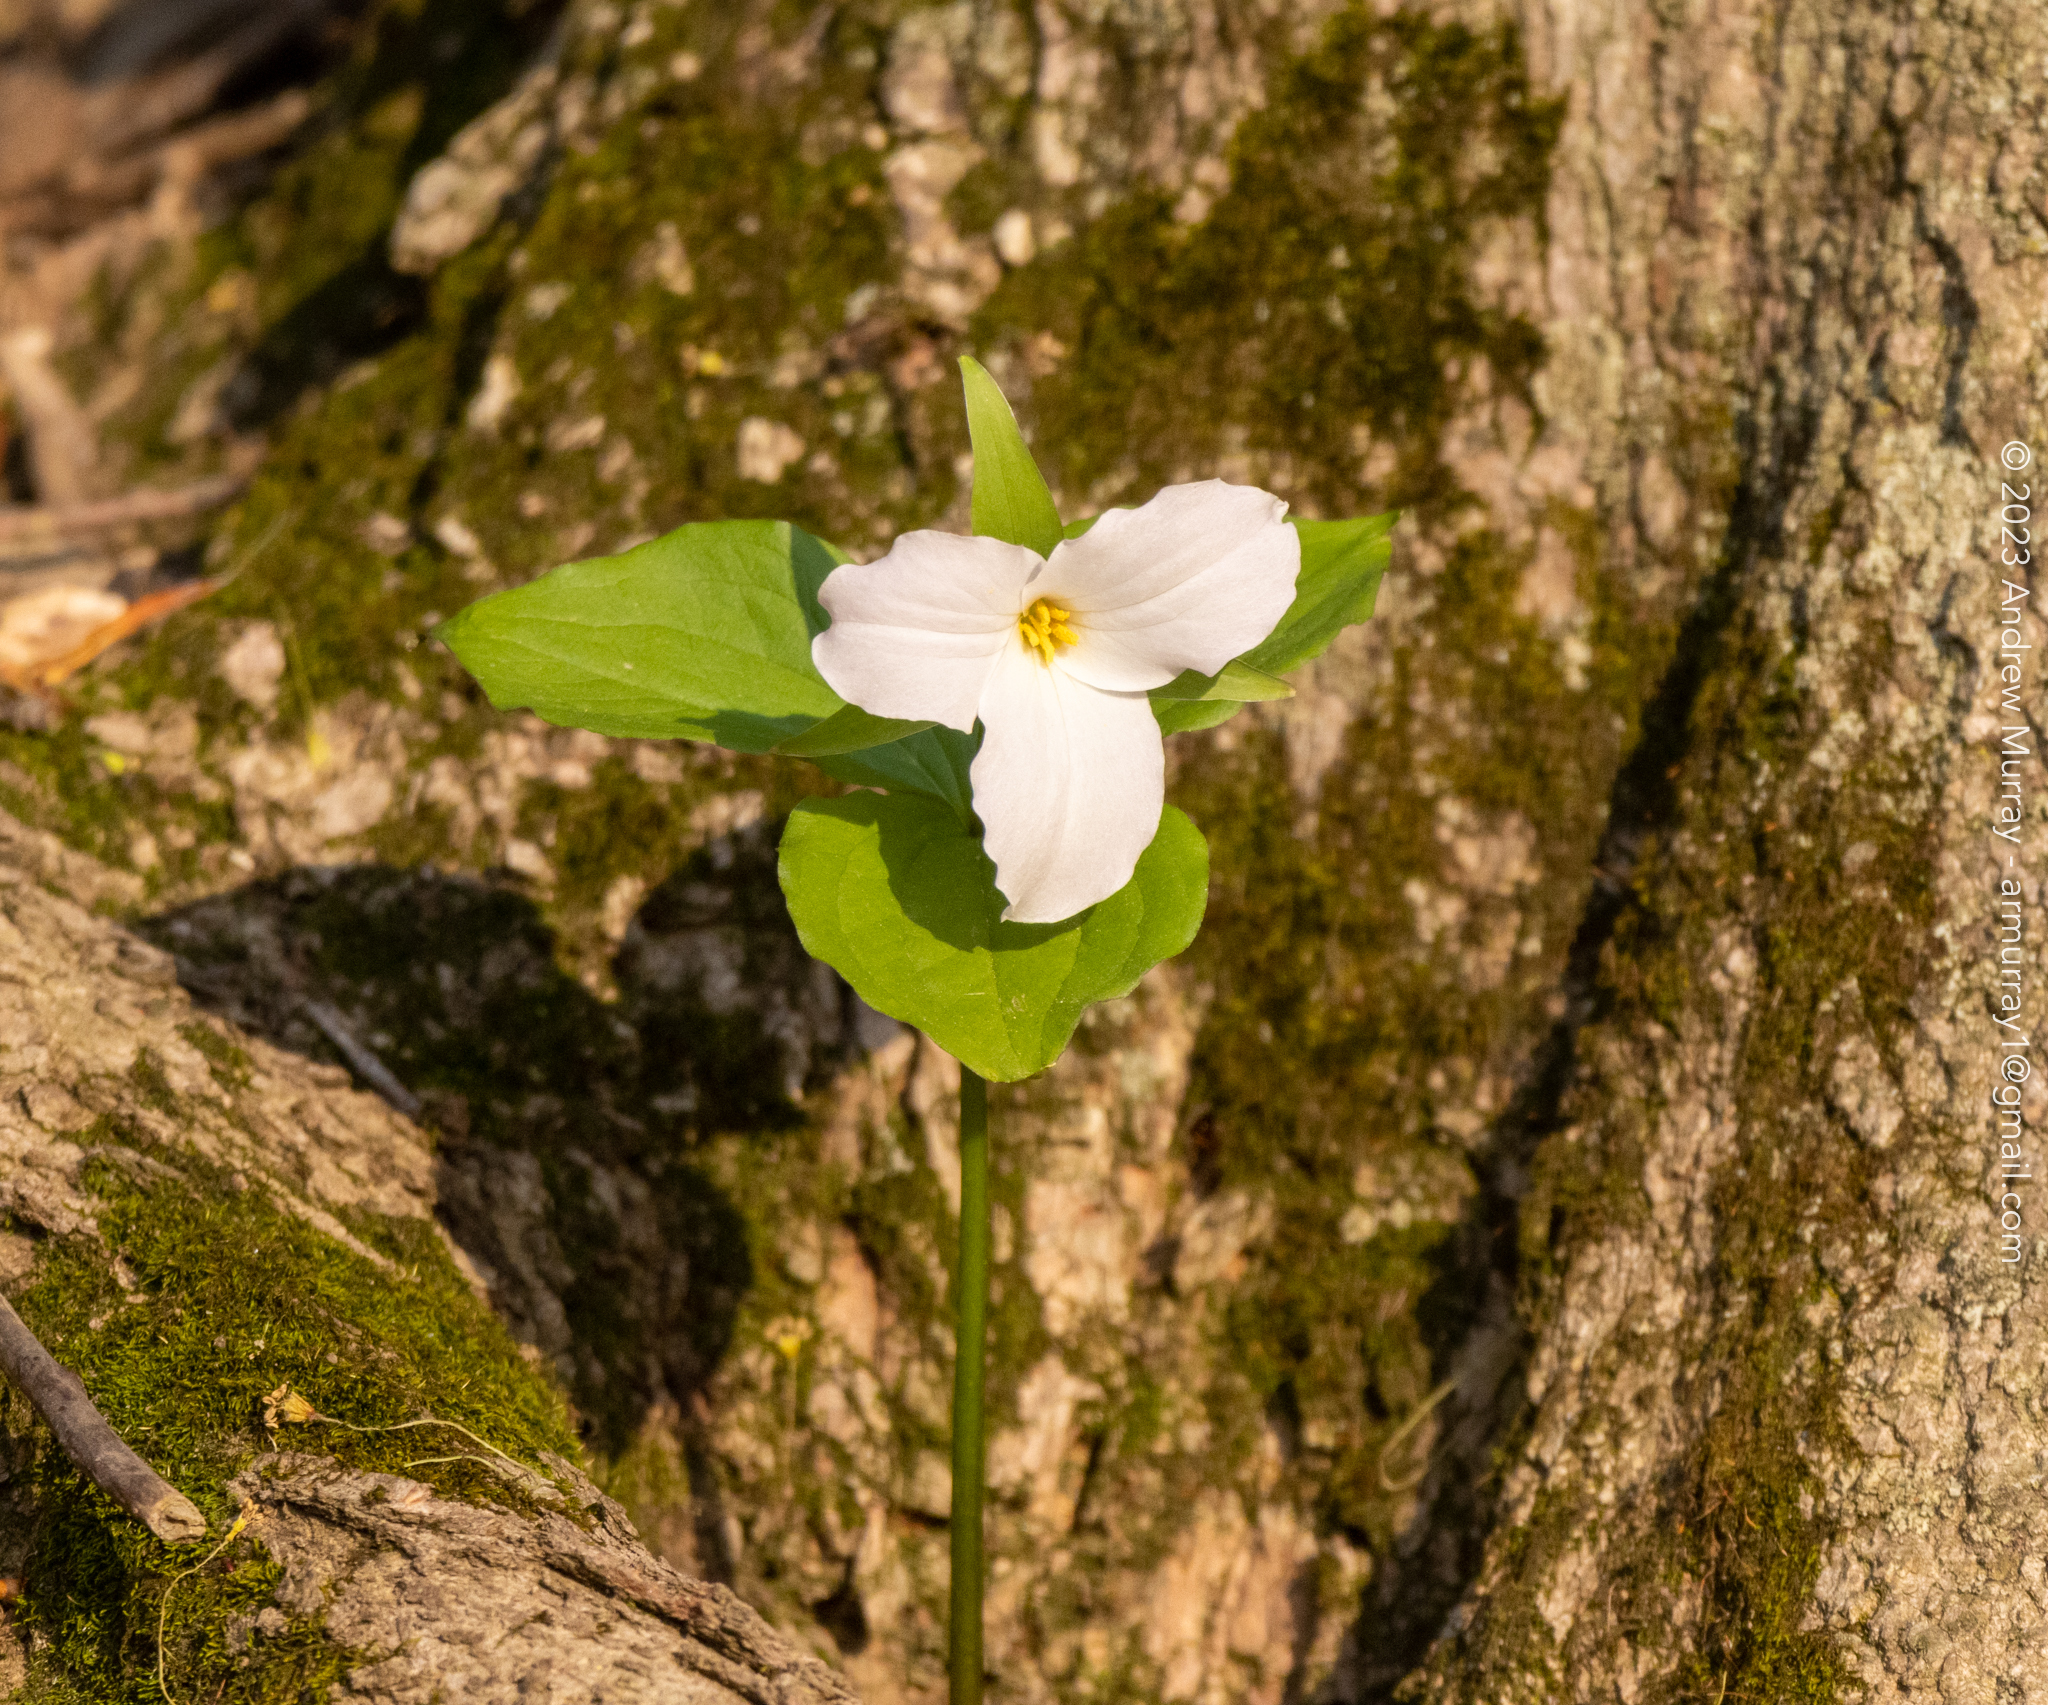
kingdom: Plantae
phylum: Tracheophyta
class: Liliopsida
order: Liliales
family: Melanthiaceae
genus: Trillium
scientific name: Trillium grandiflorum
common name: Great white trillium
